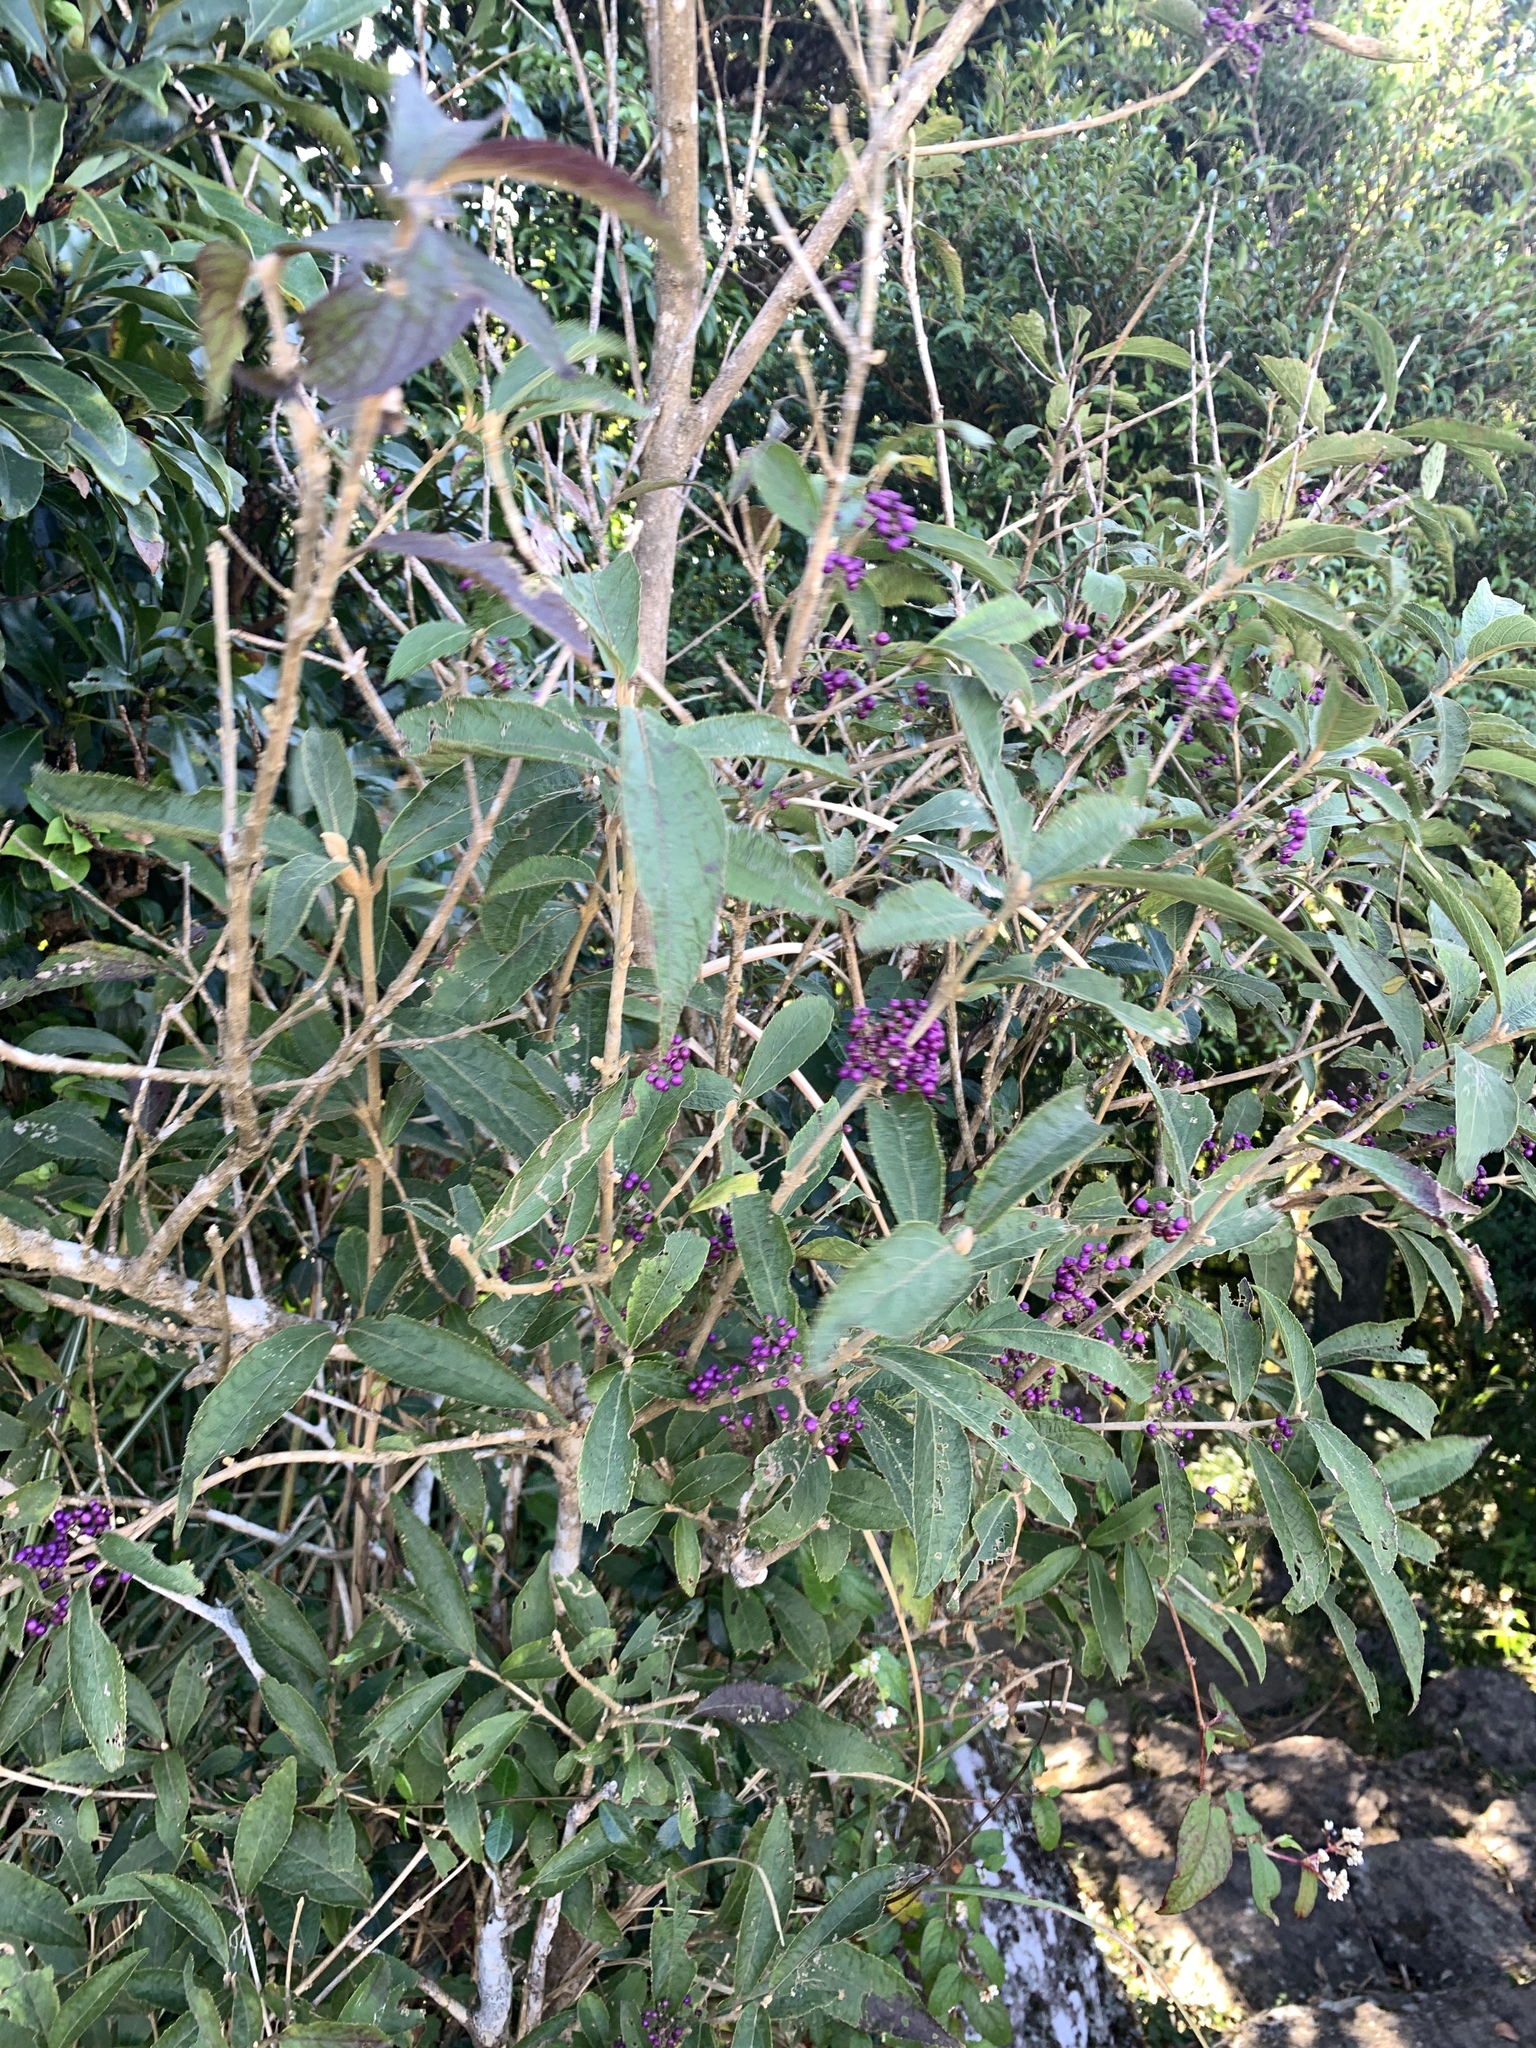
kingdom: Plantae
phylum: Tracheophyta
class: Magnoliopsida
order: Lamiales
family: Lamiaceae
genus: Callicarpa
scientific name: Callicarpa tikusikensis
